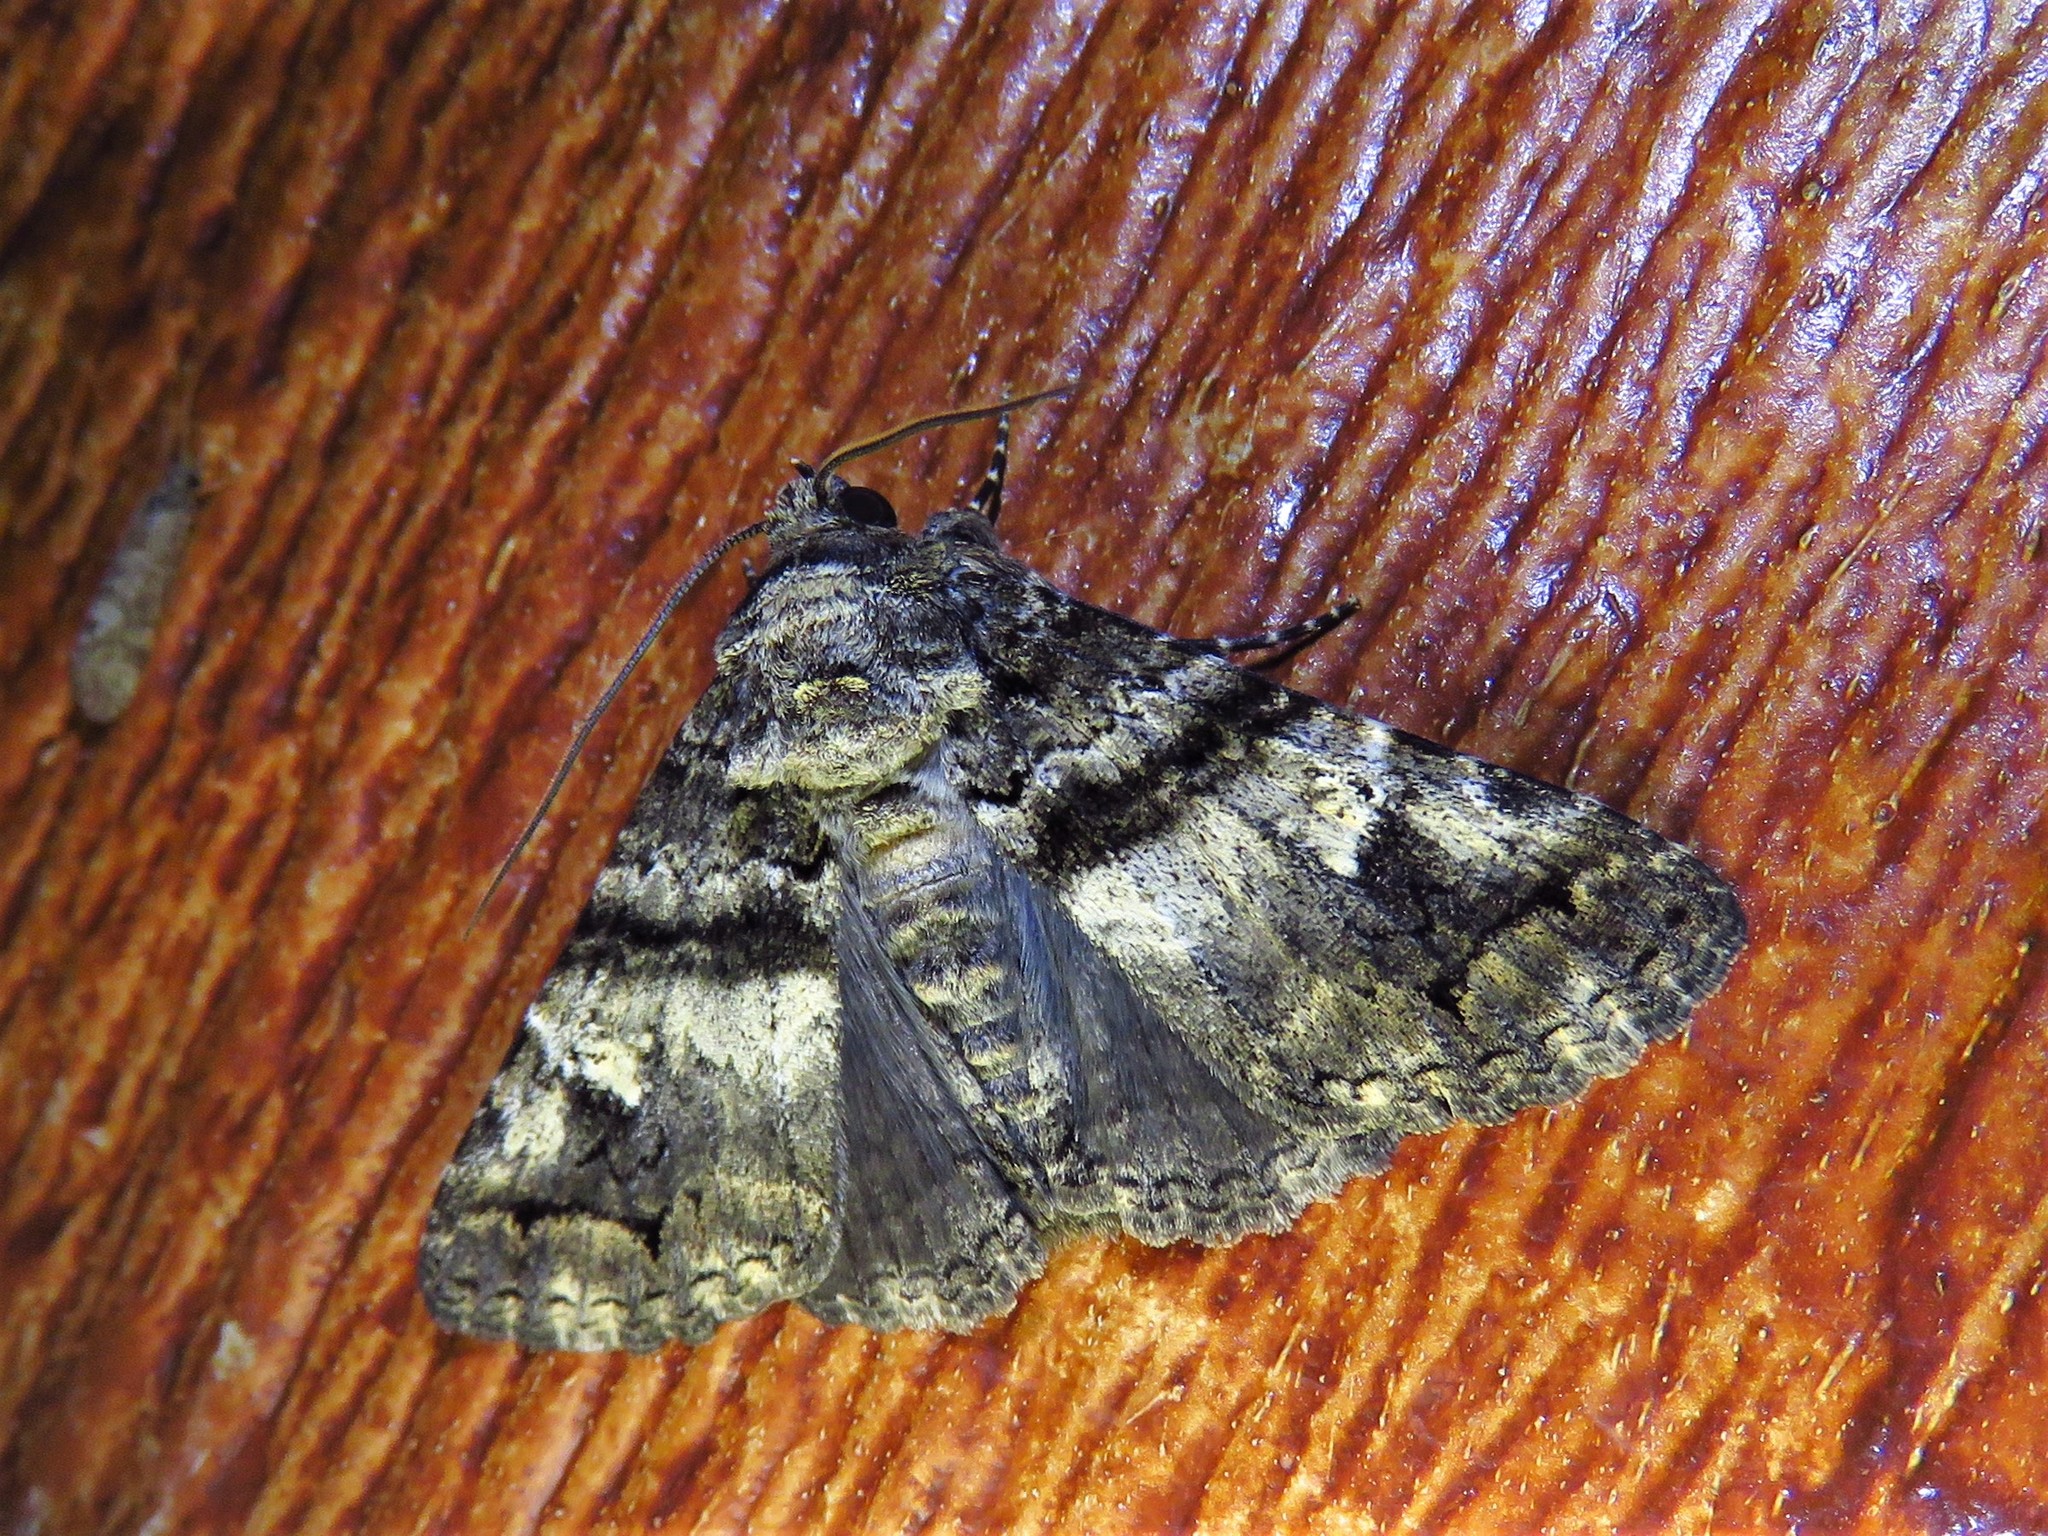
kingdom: Animalia
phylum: Arthropoda
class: Insecta
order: Lepidoptera
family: Erebidae
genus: Metria
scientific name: Metria amella
